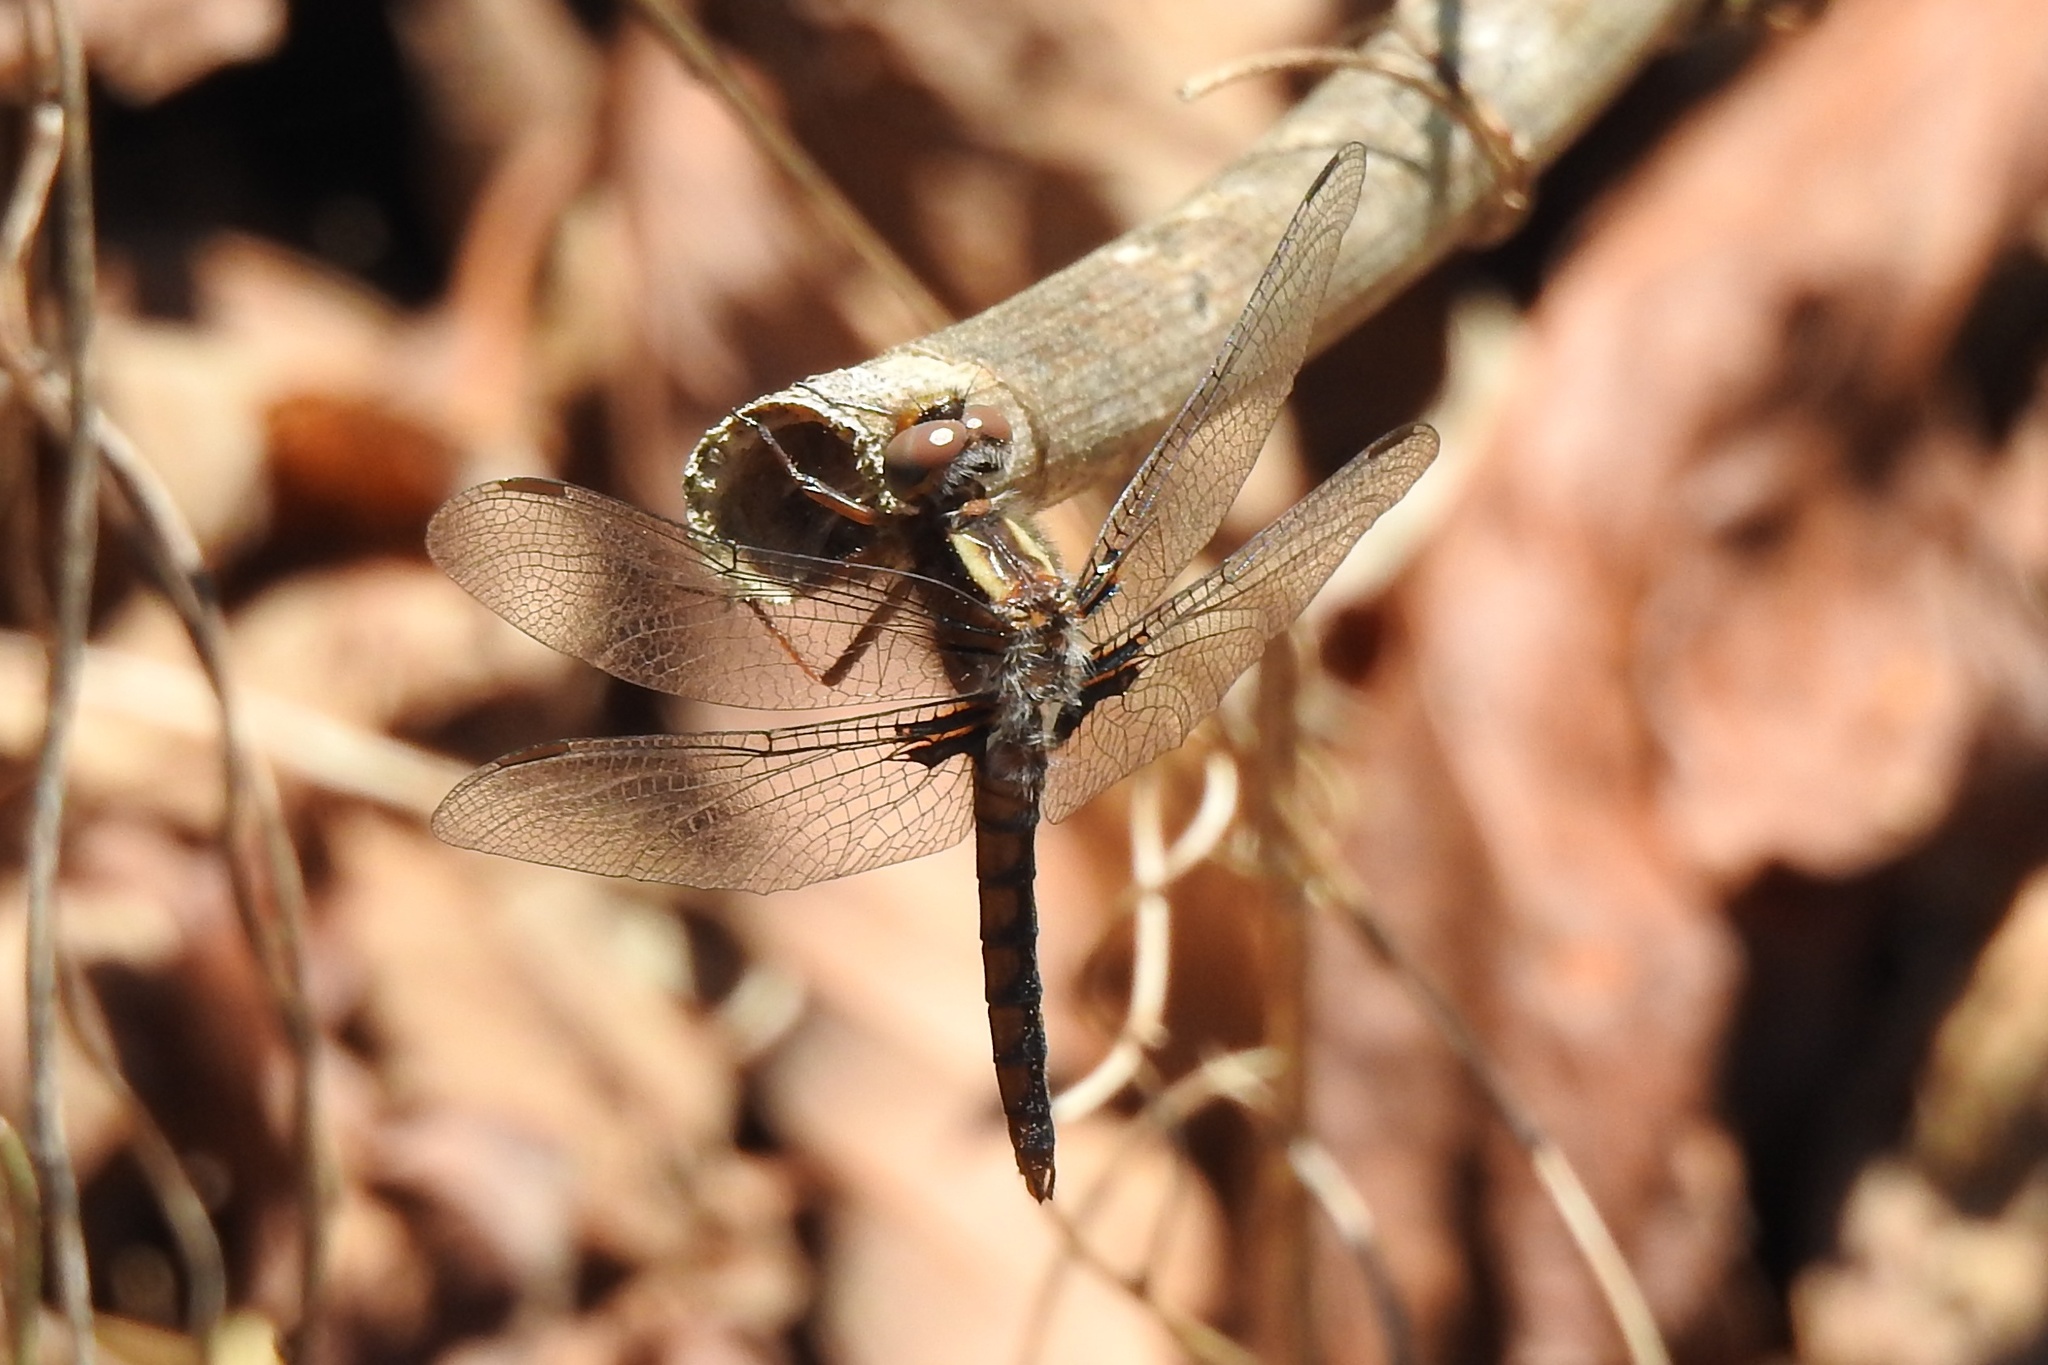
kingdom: Animalia
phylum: Arthropoda
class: Insecta
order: Odonata
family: Libellulidae
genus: Ladona
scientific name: Ladona deplanata
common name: Blue corporal
